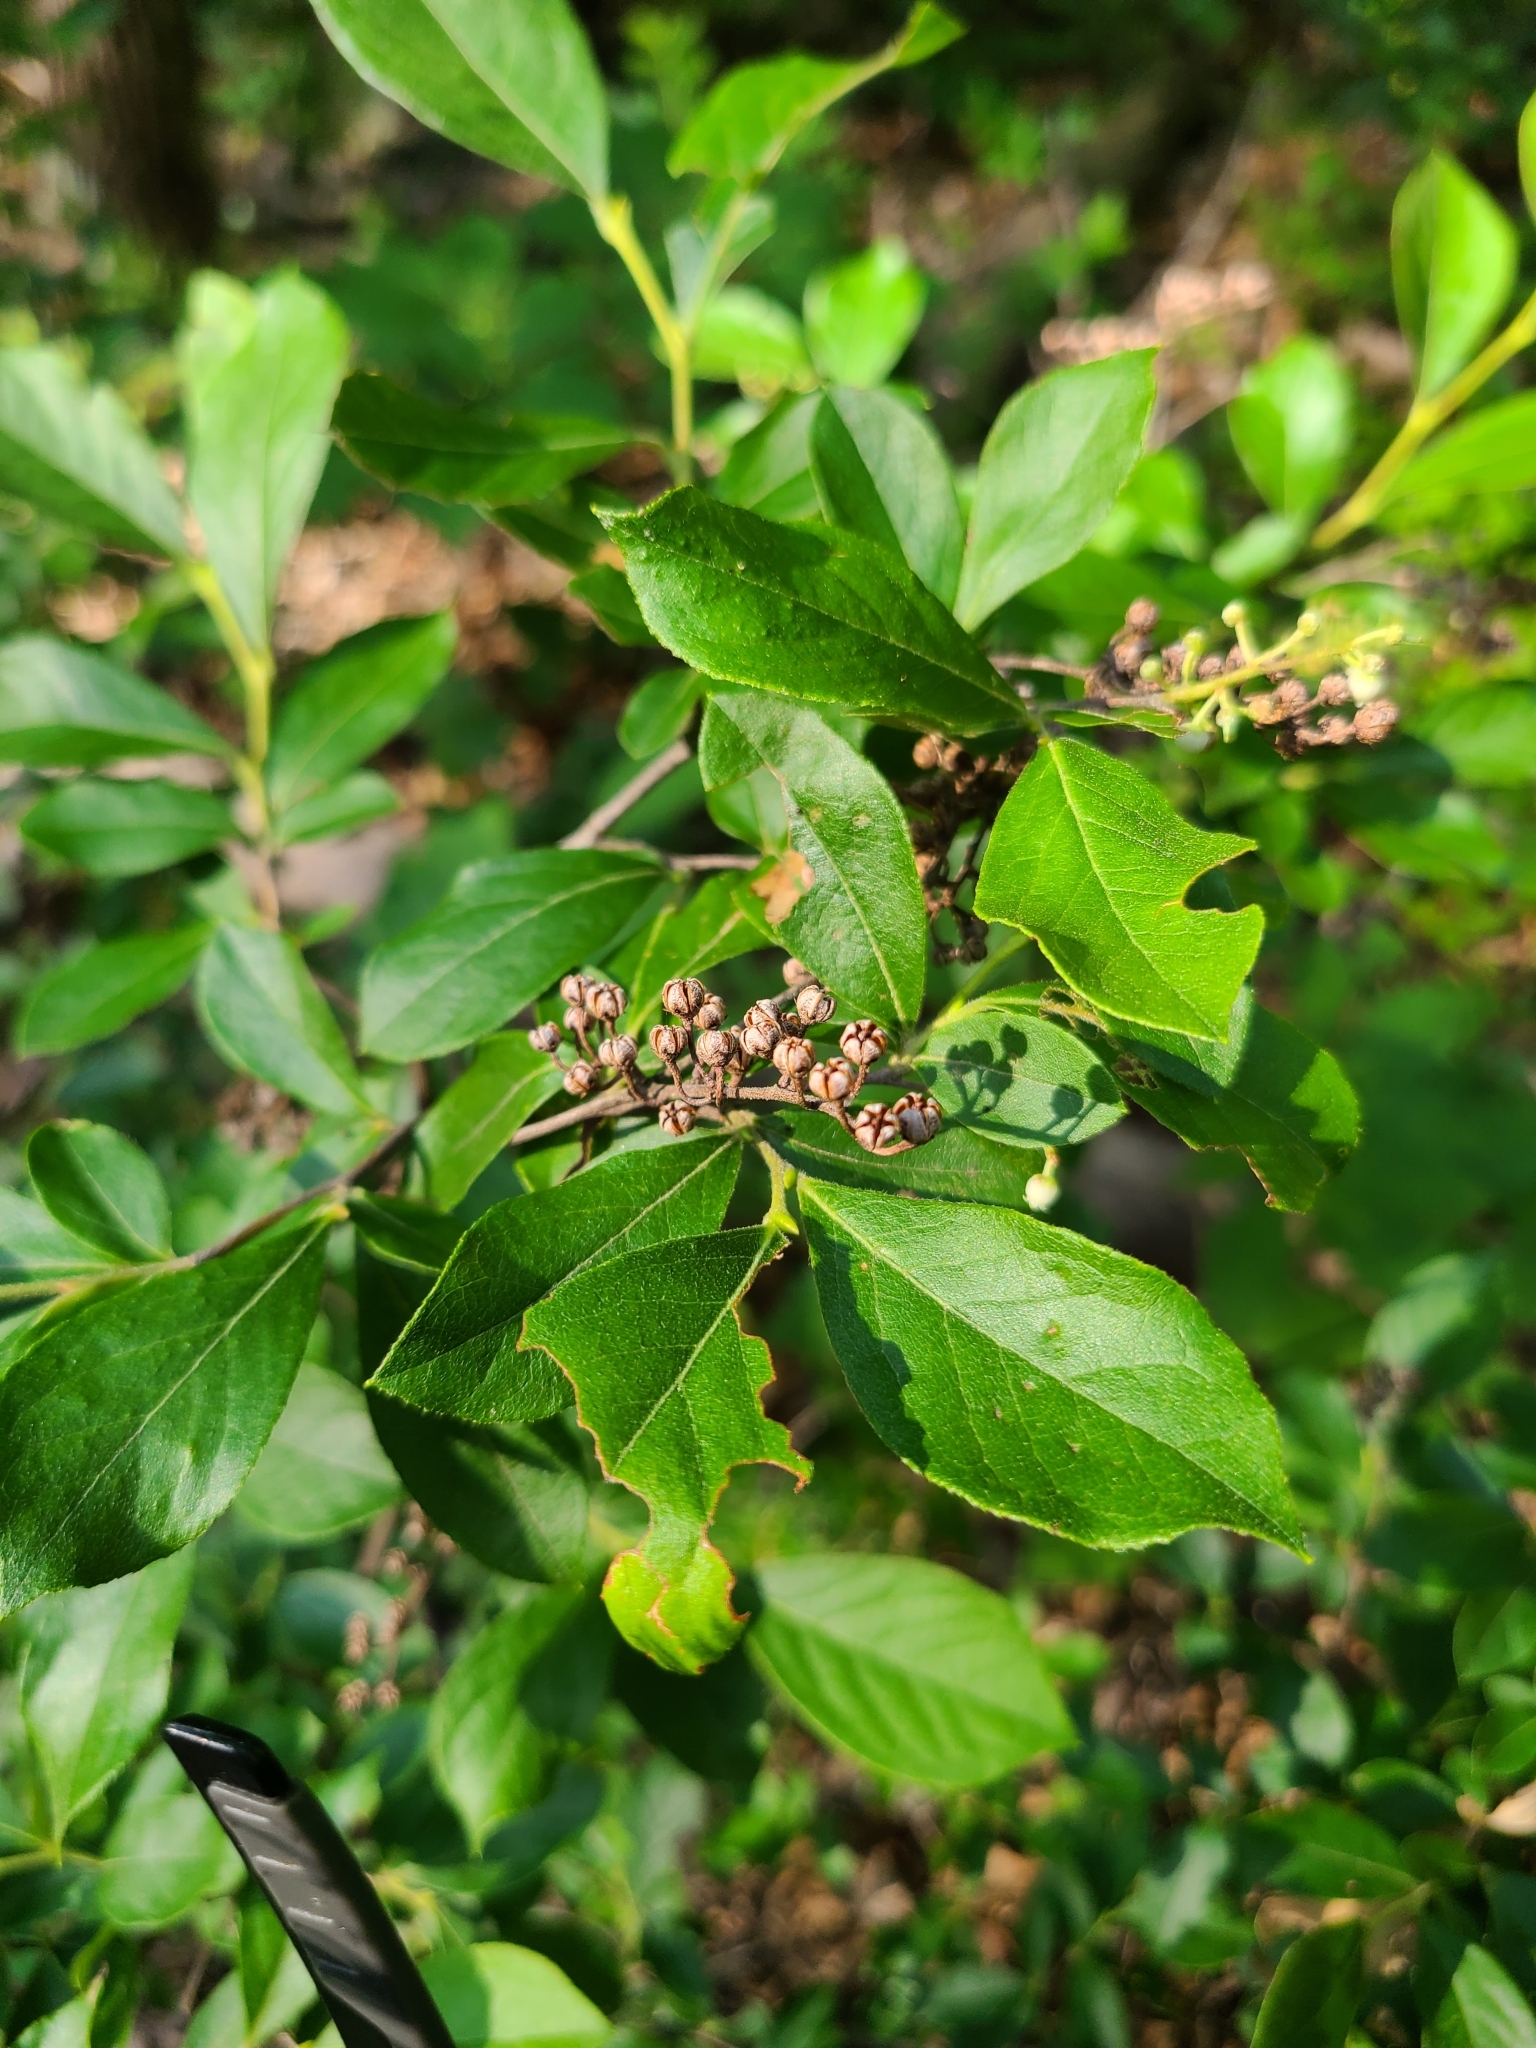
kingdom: Plantae
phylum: Tracheophyta
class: Magnoliopsida
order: Ericales
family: Ericaceae
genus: Lyonia
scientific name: Lyonia ligustrina
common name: Maleberry
